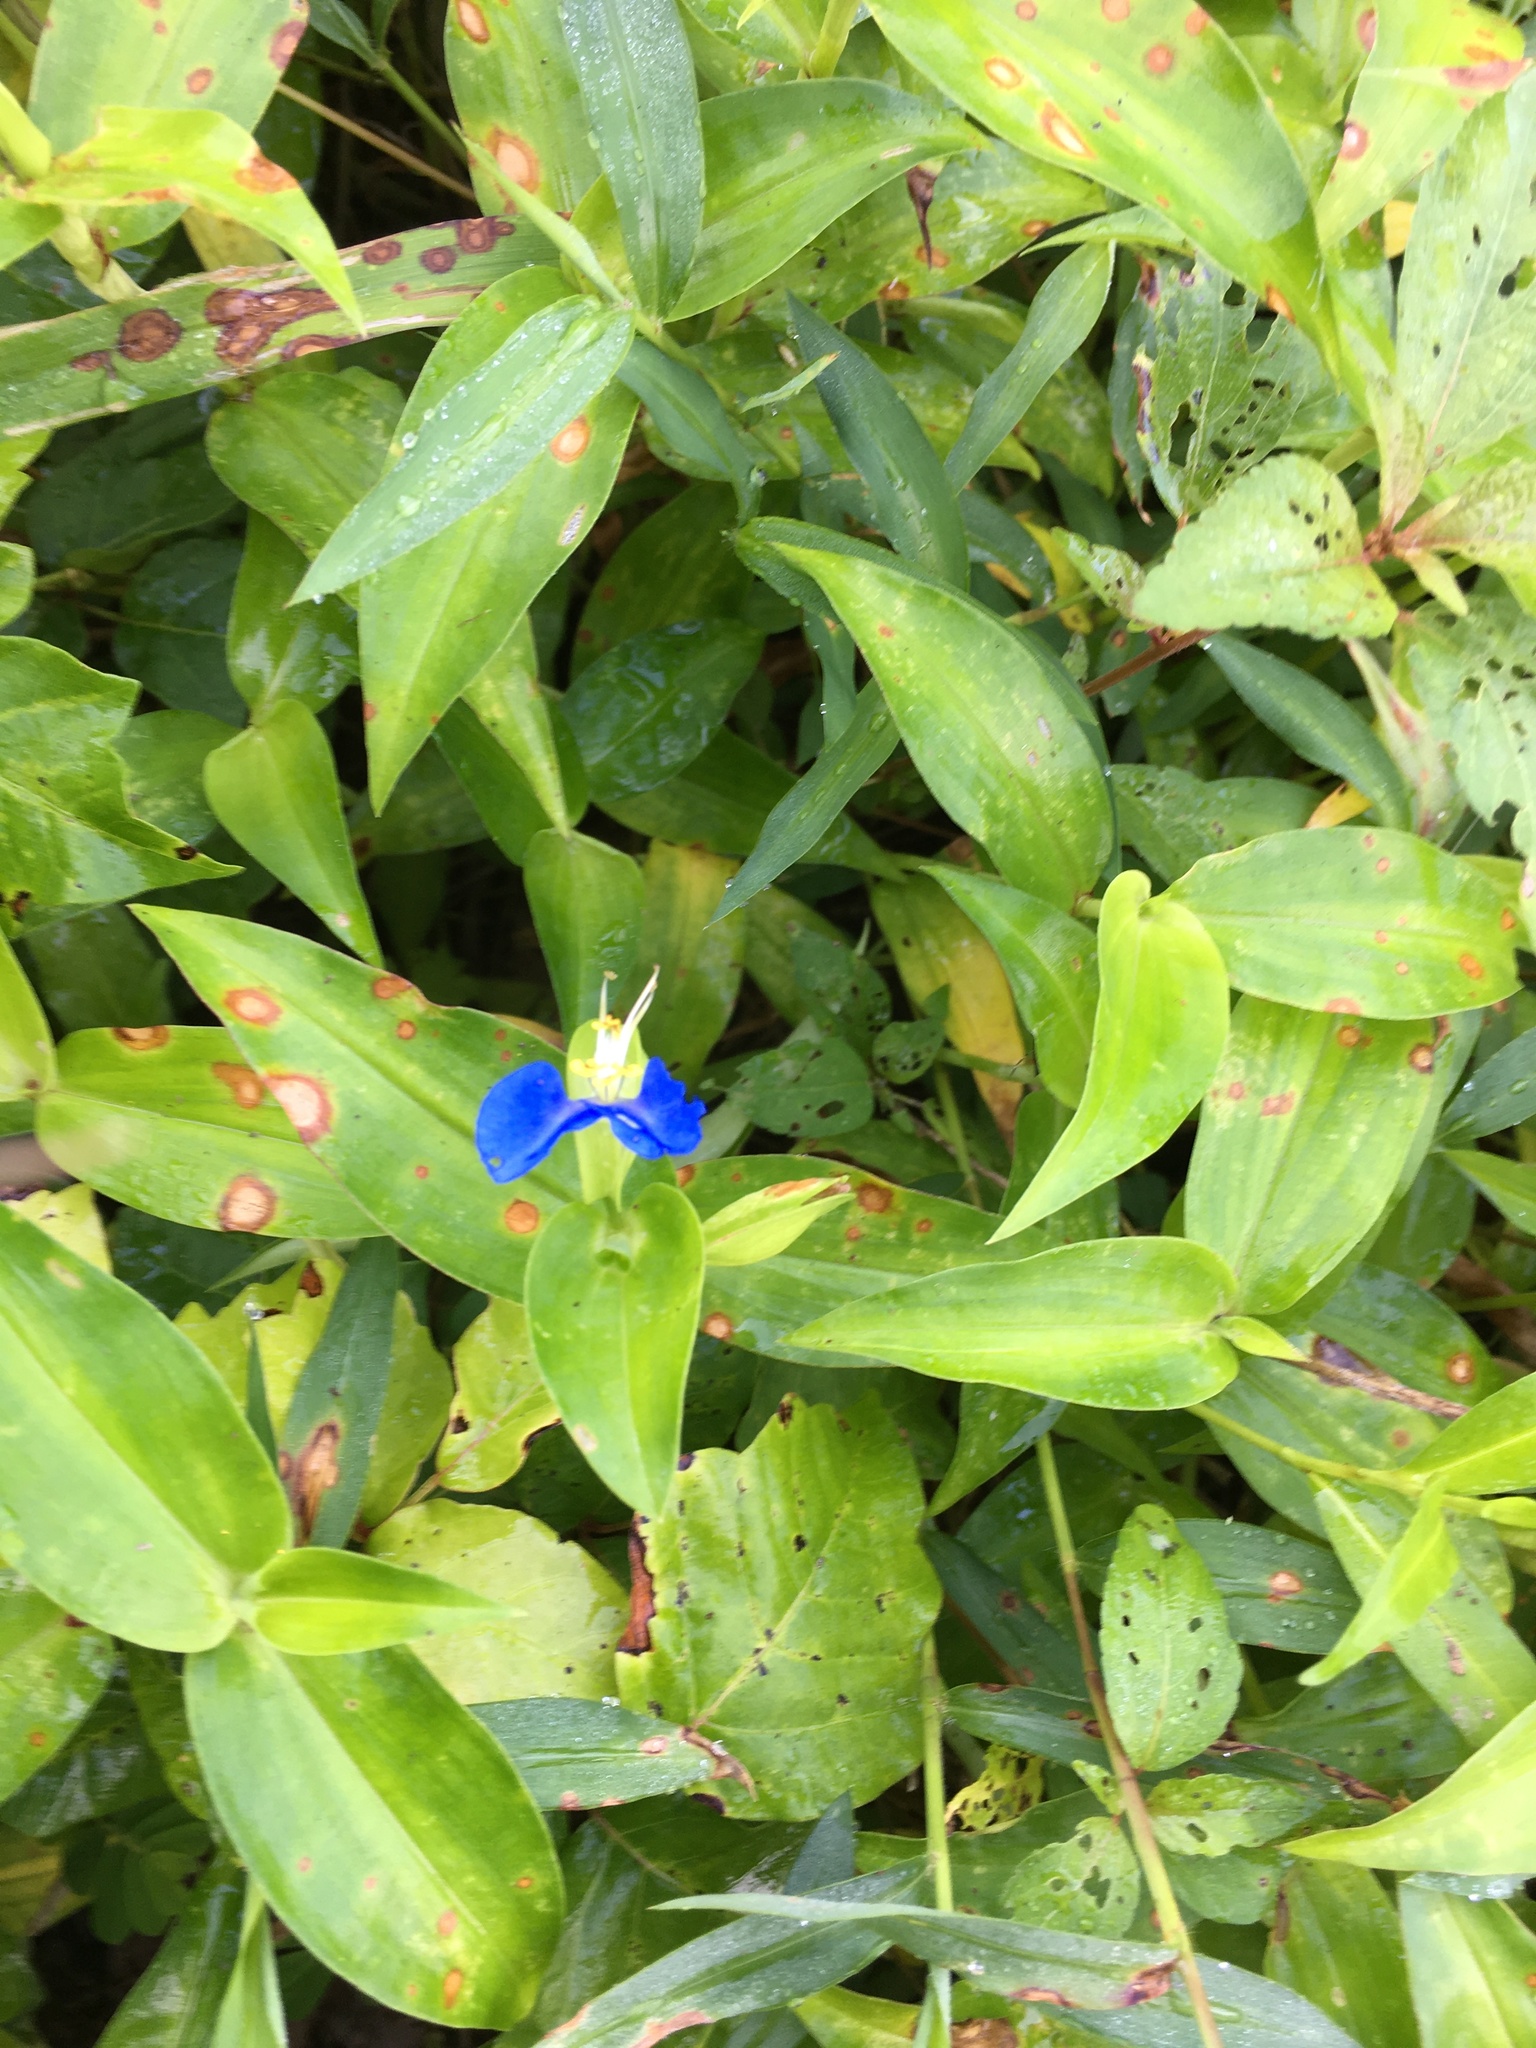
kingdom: Plantae
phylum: Tracheophyta
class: Liliopsida
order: Commelinales
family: Commelinaceae
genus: Commelina
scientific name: Commelina communis
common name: Asiatic dayflower
